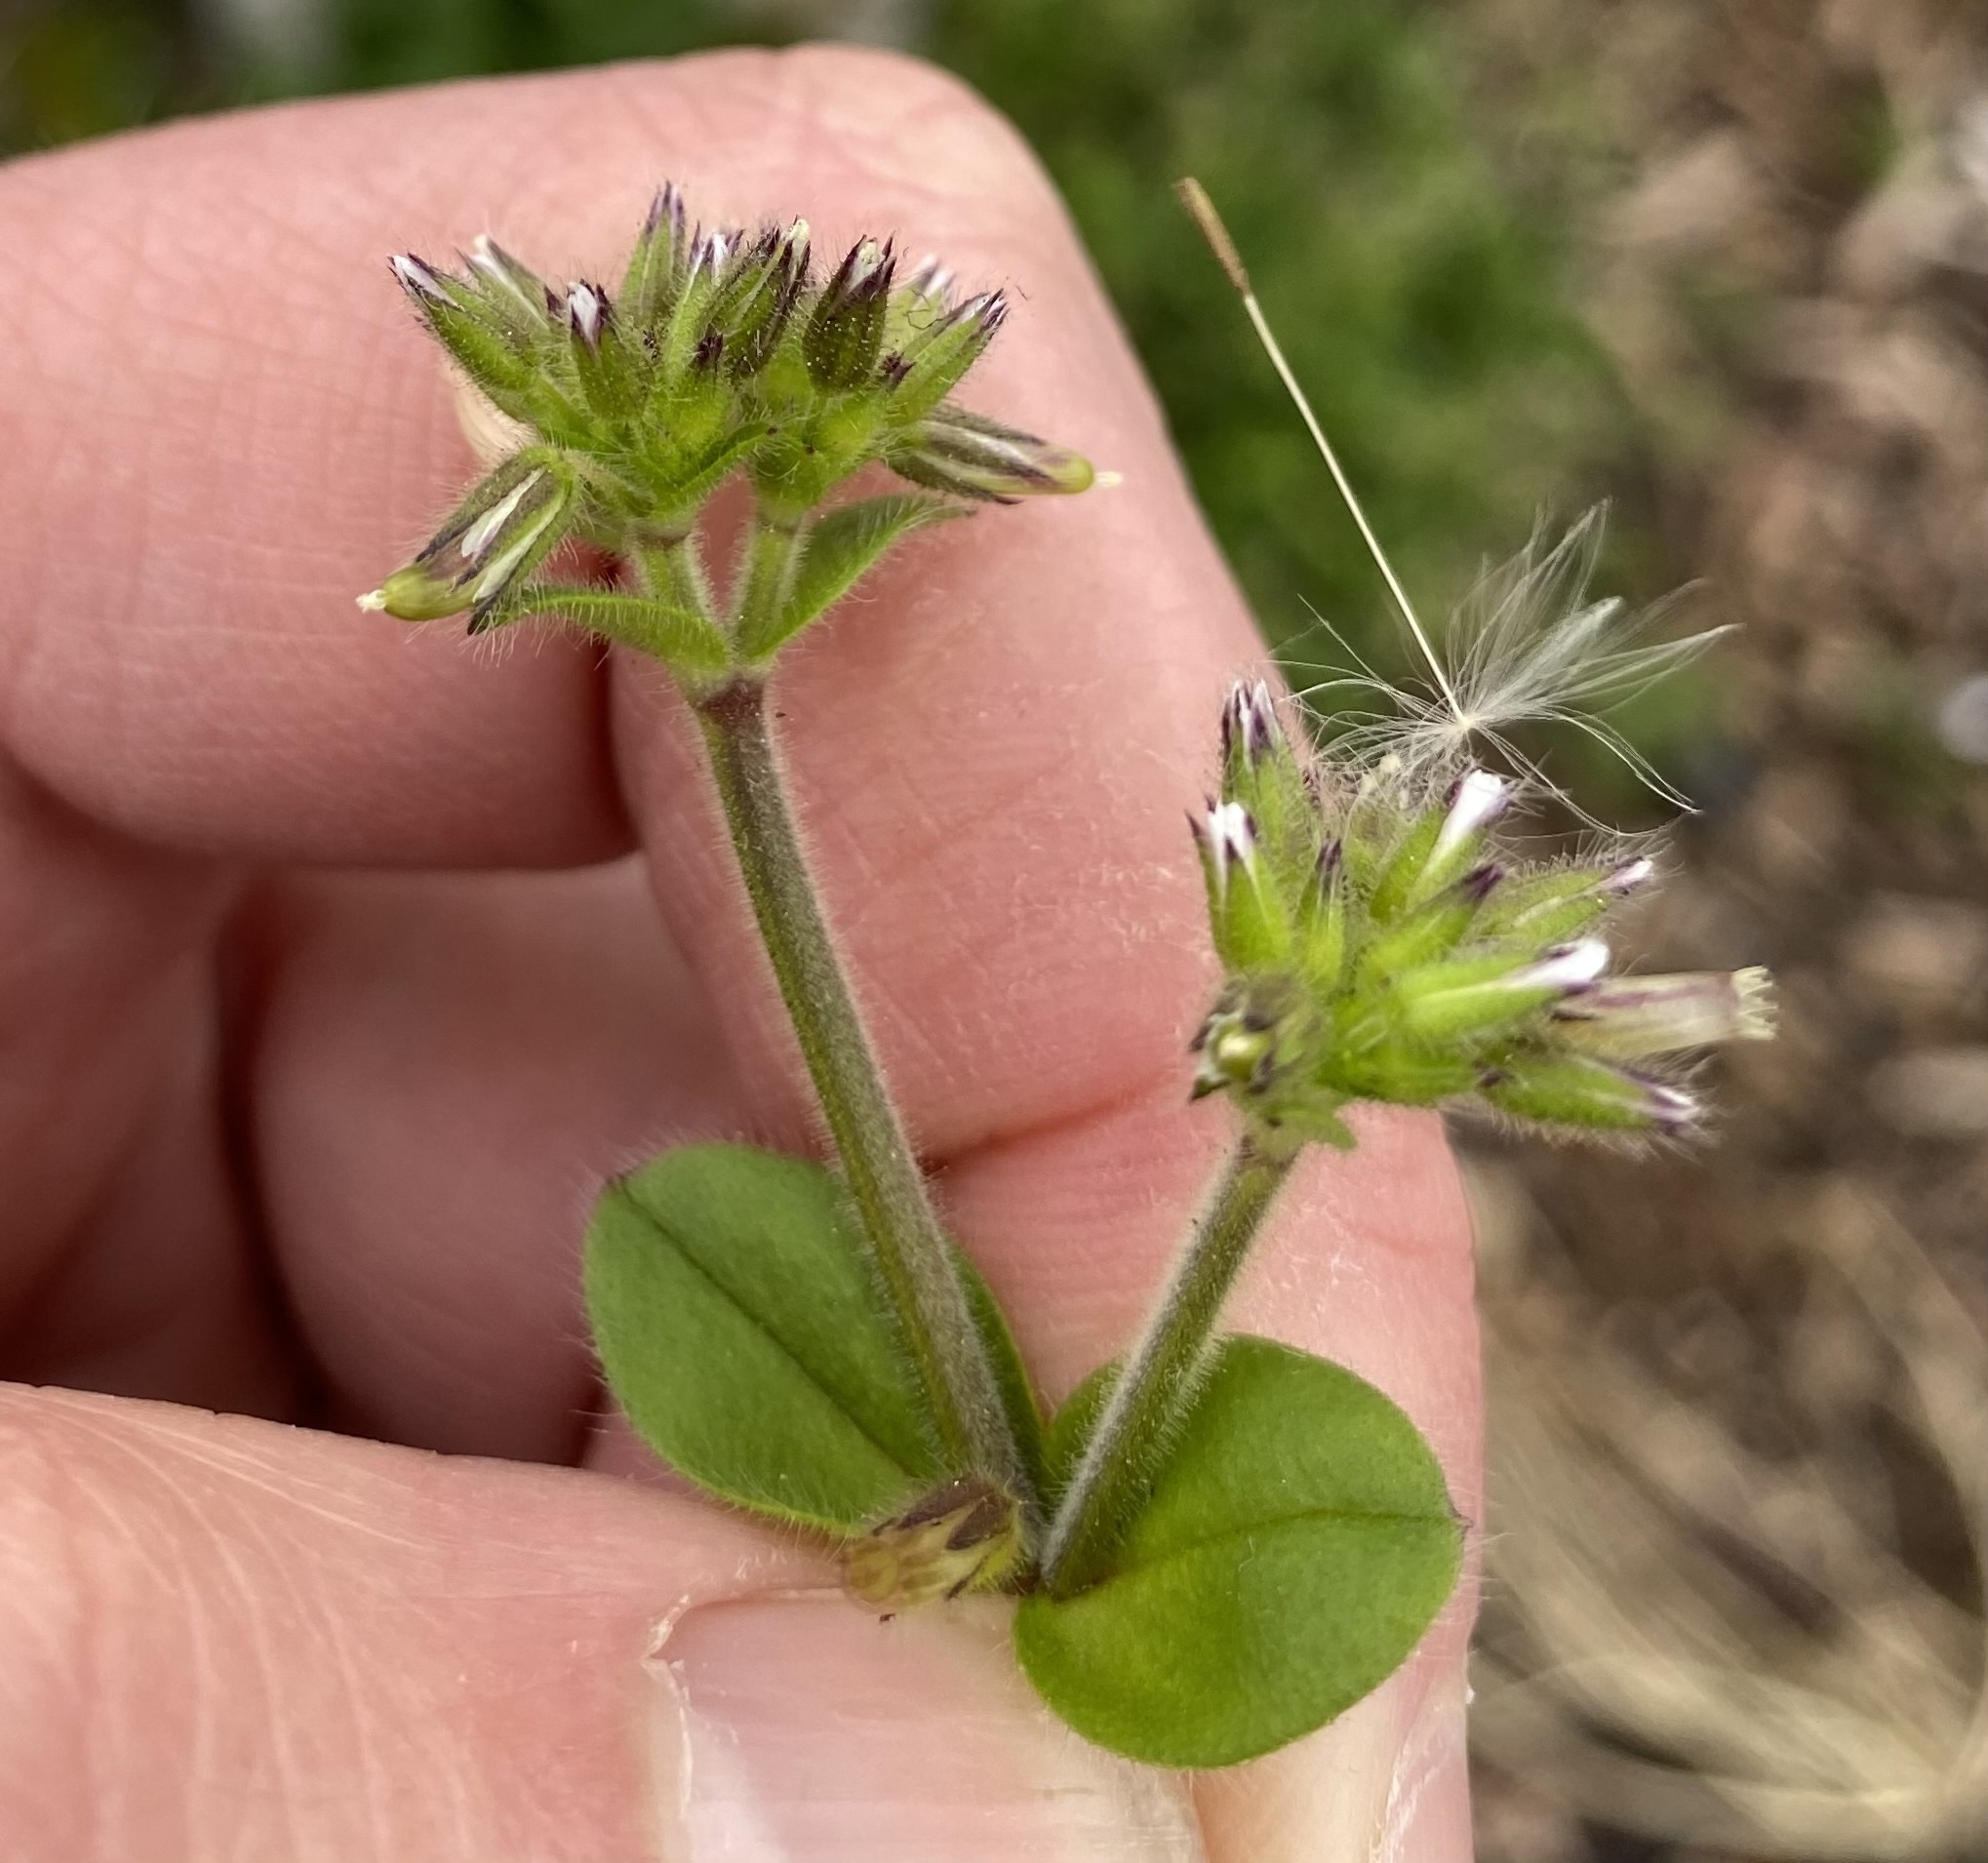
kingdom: Plantae
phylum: Tracheophyta
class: Magnoliopsida
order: Caryophyllales
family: Caryophyllaceae
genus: Cerastium
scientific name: Cerastium glomeratum
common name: Sticky chickweed
